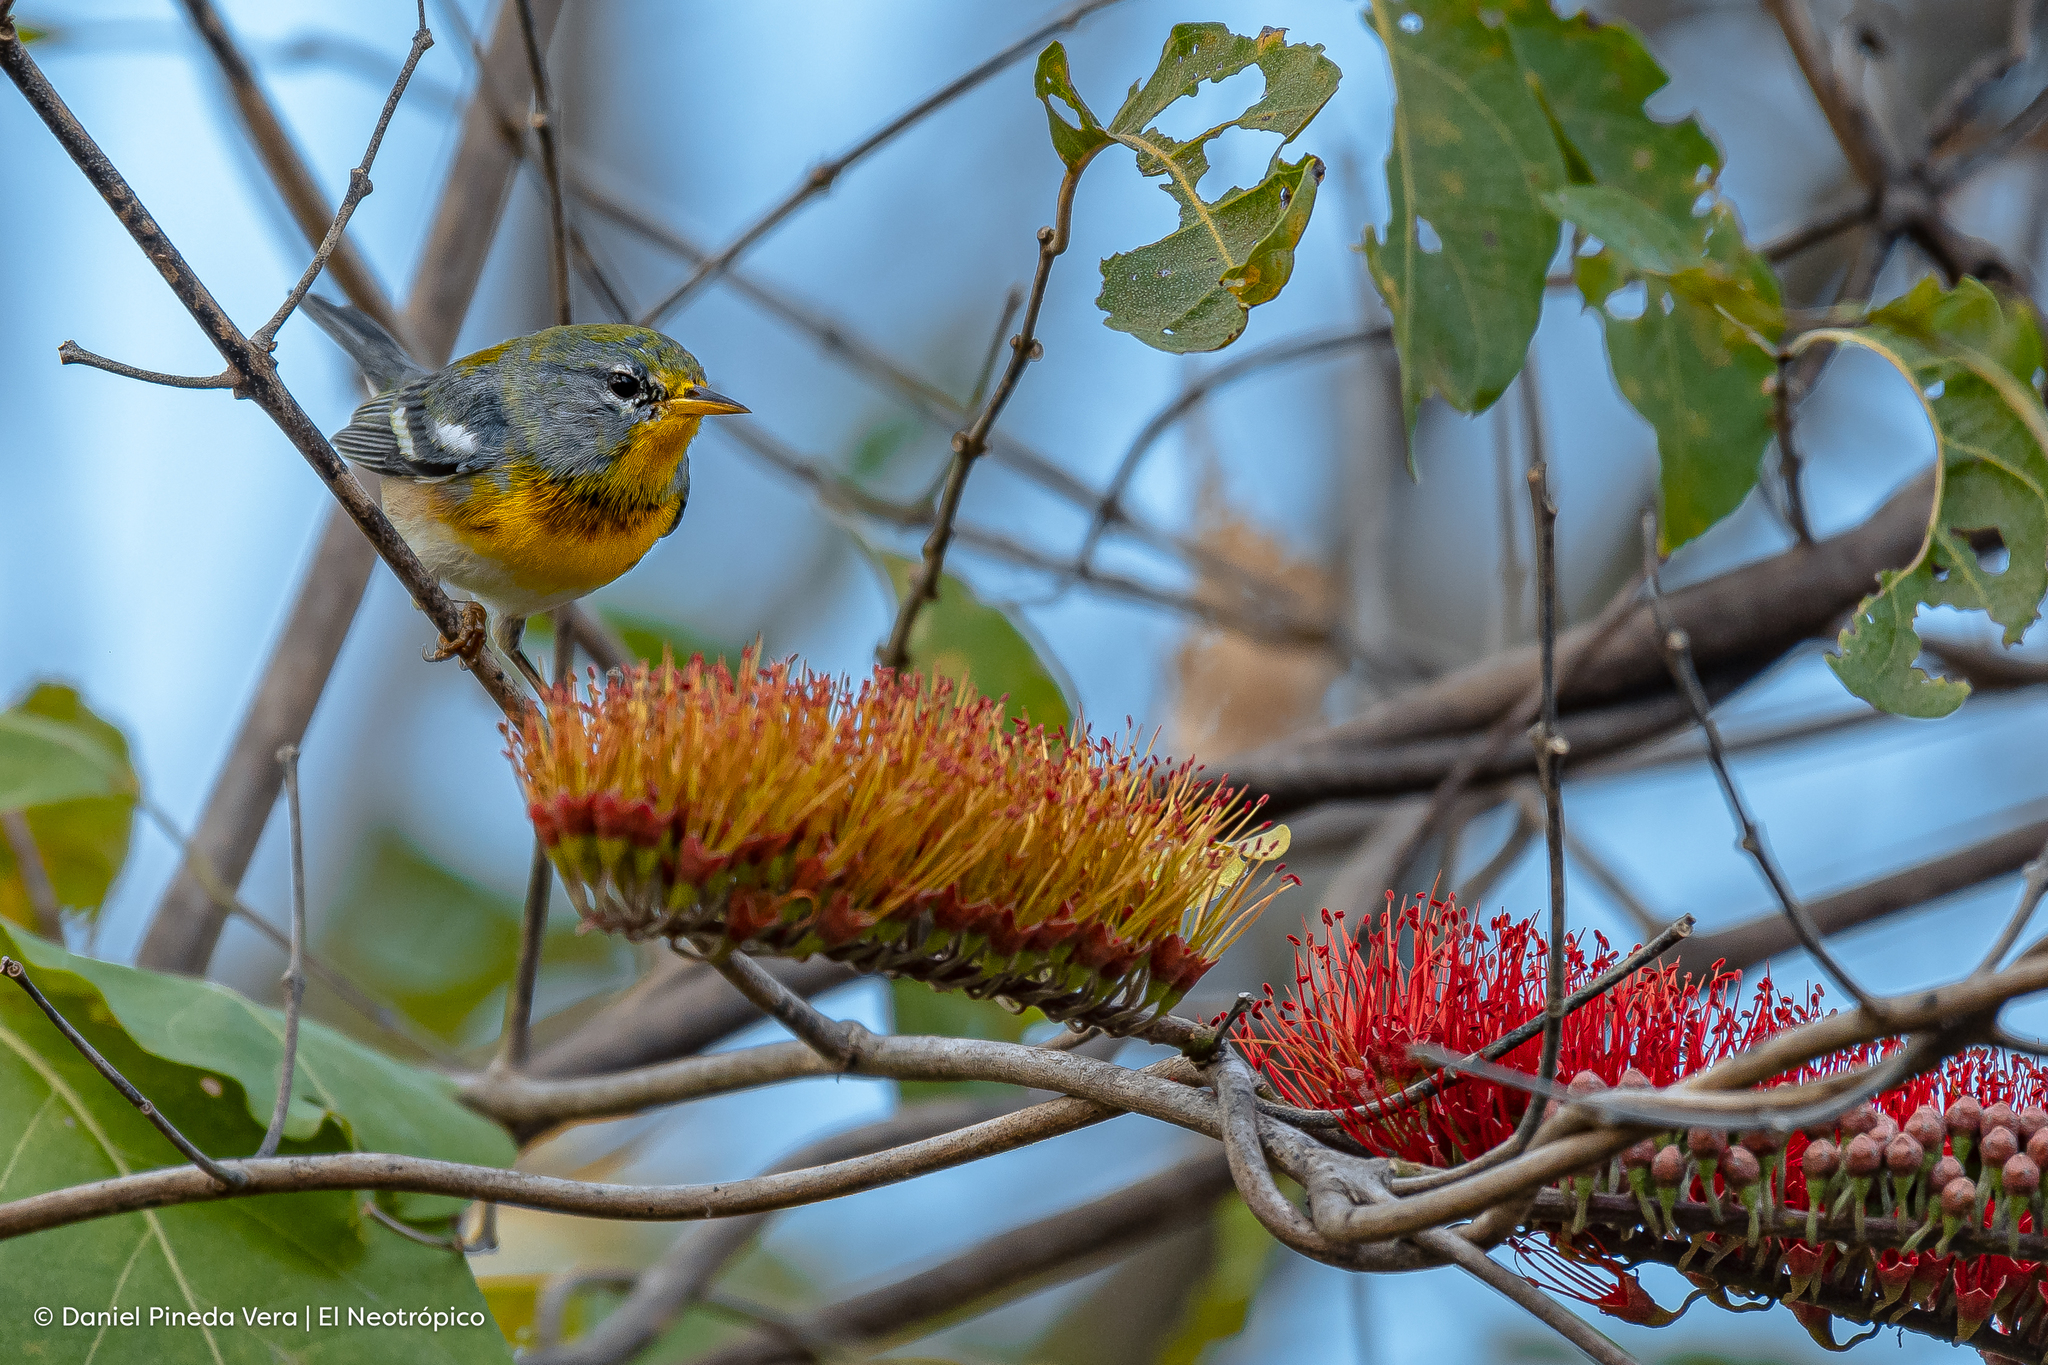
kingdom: Animalia
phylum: Chordata
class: Aves
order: Passeriformes
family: Parulidae
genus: Setophaga
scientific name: Setophaga americana
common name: Northern parula
